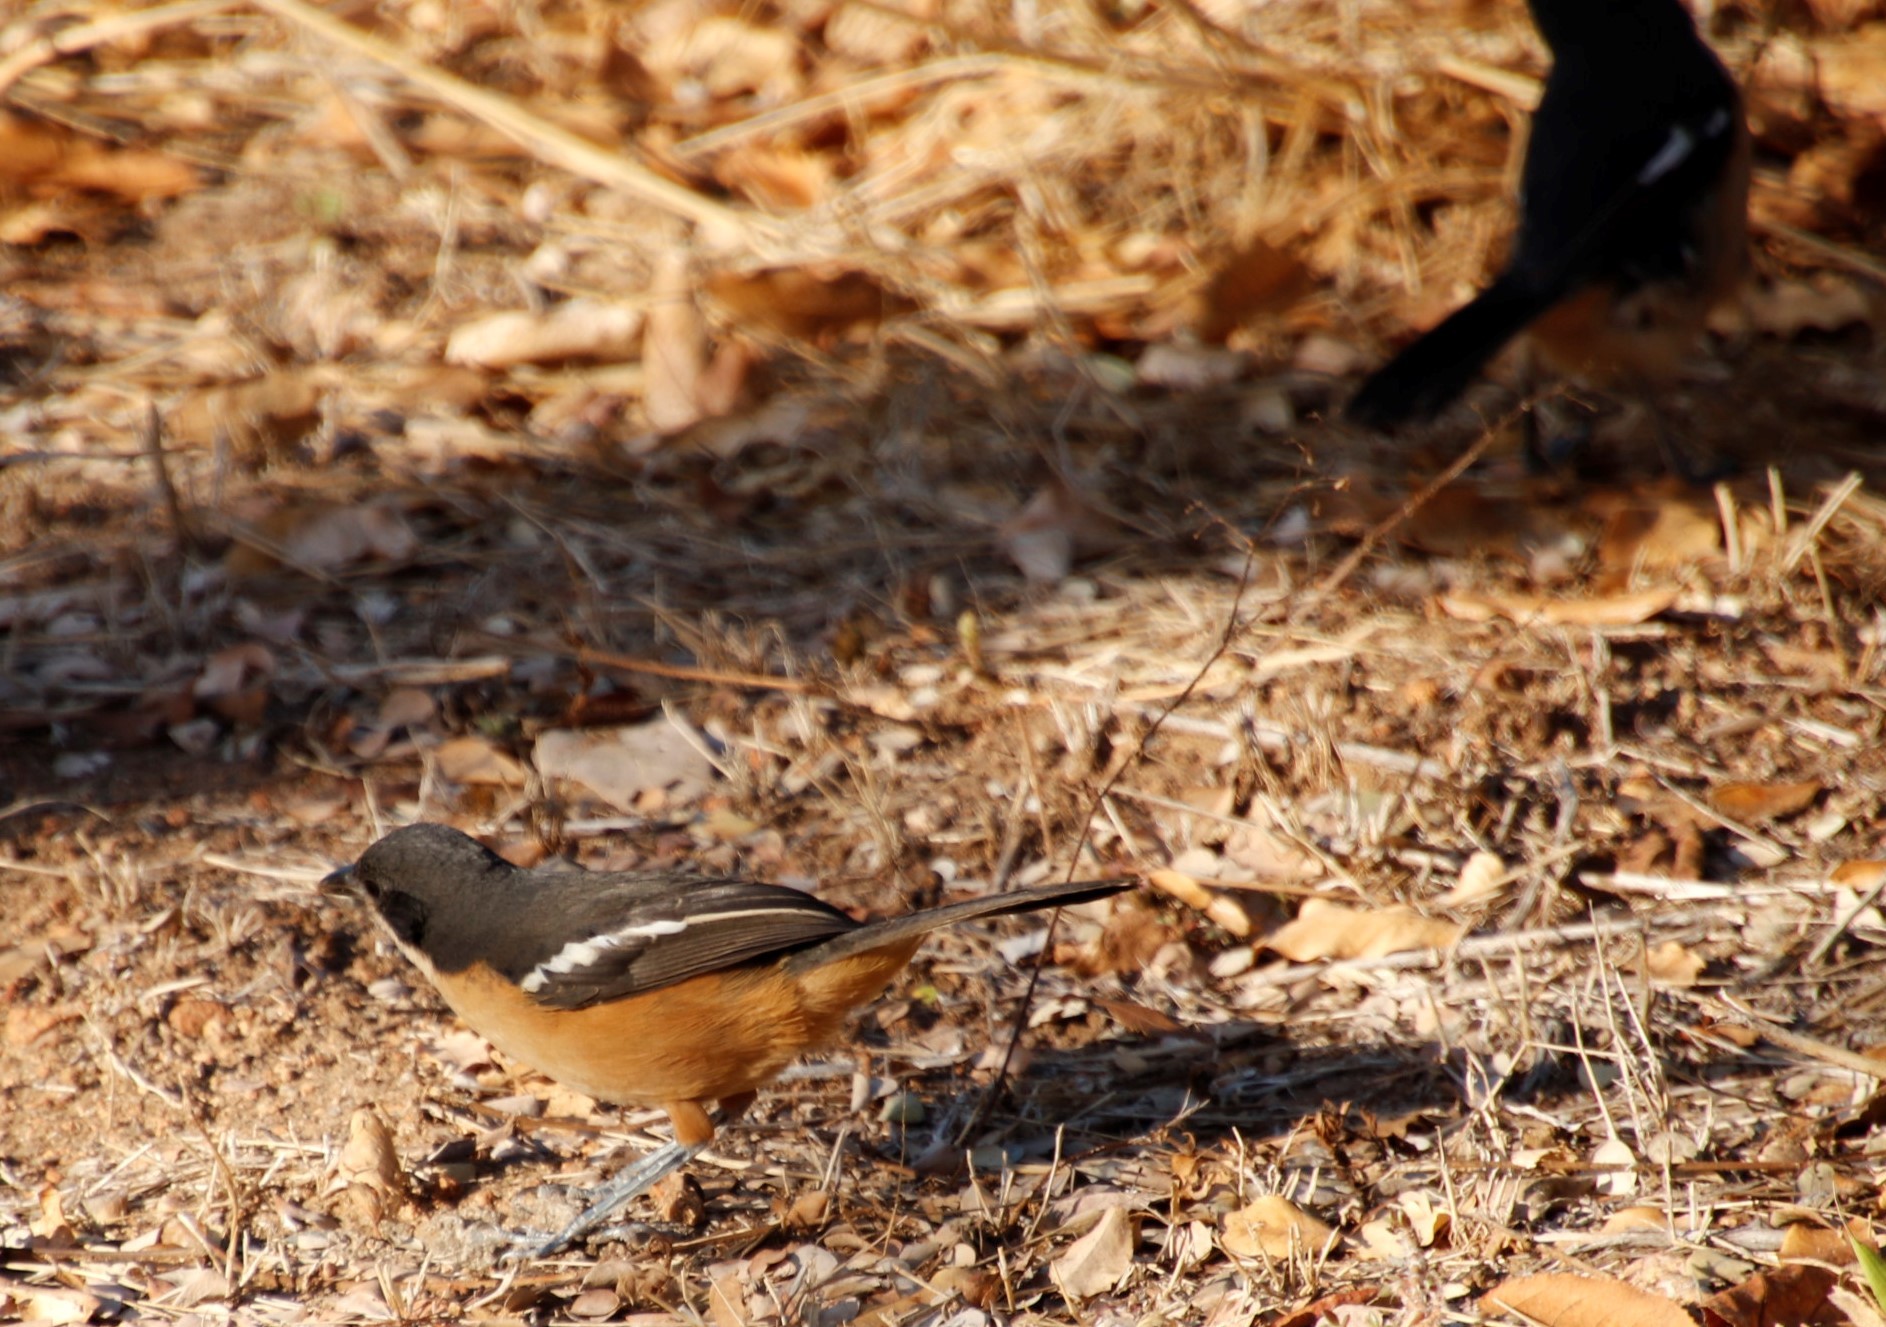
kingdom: Animalia
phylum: Chordata
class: Aves
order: Passeriformes
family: Malaconotidae
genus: Laniarius
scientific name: Laniarius ferrugineus
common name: Southern boubou
